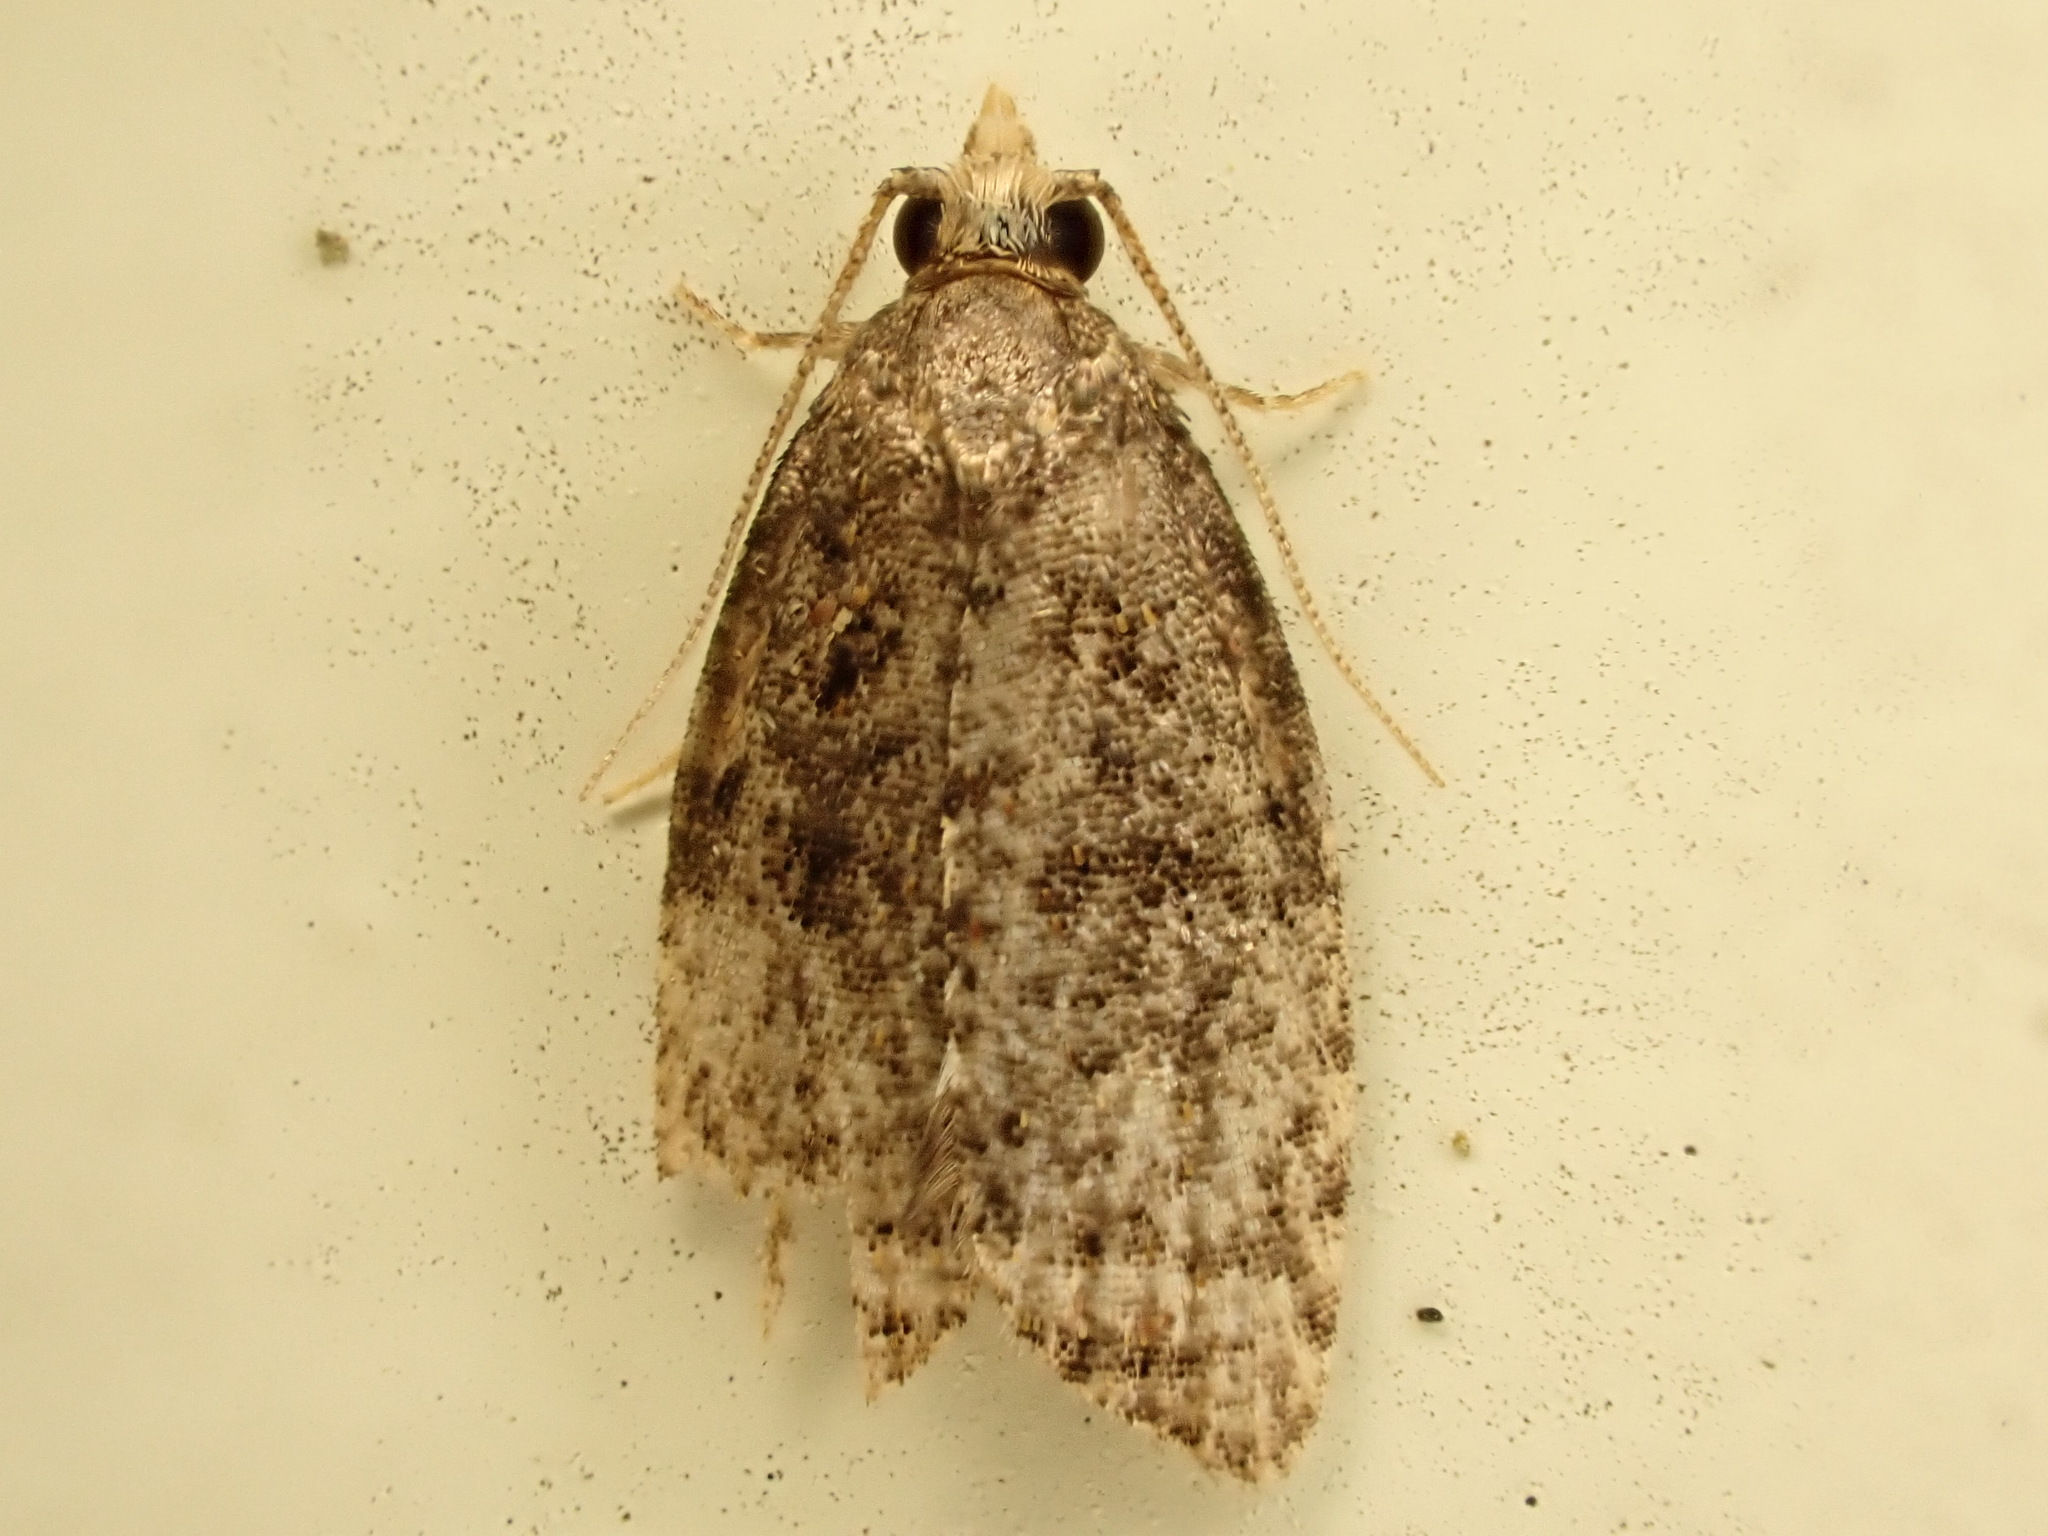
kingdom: Animalia
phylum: Arthropoda
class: Insecta
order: Lepidoptera
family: Tortricidae
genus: Capua
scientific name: Capua intractana
